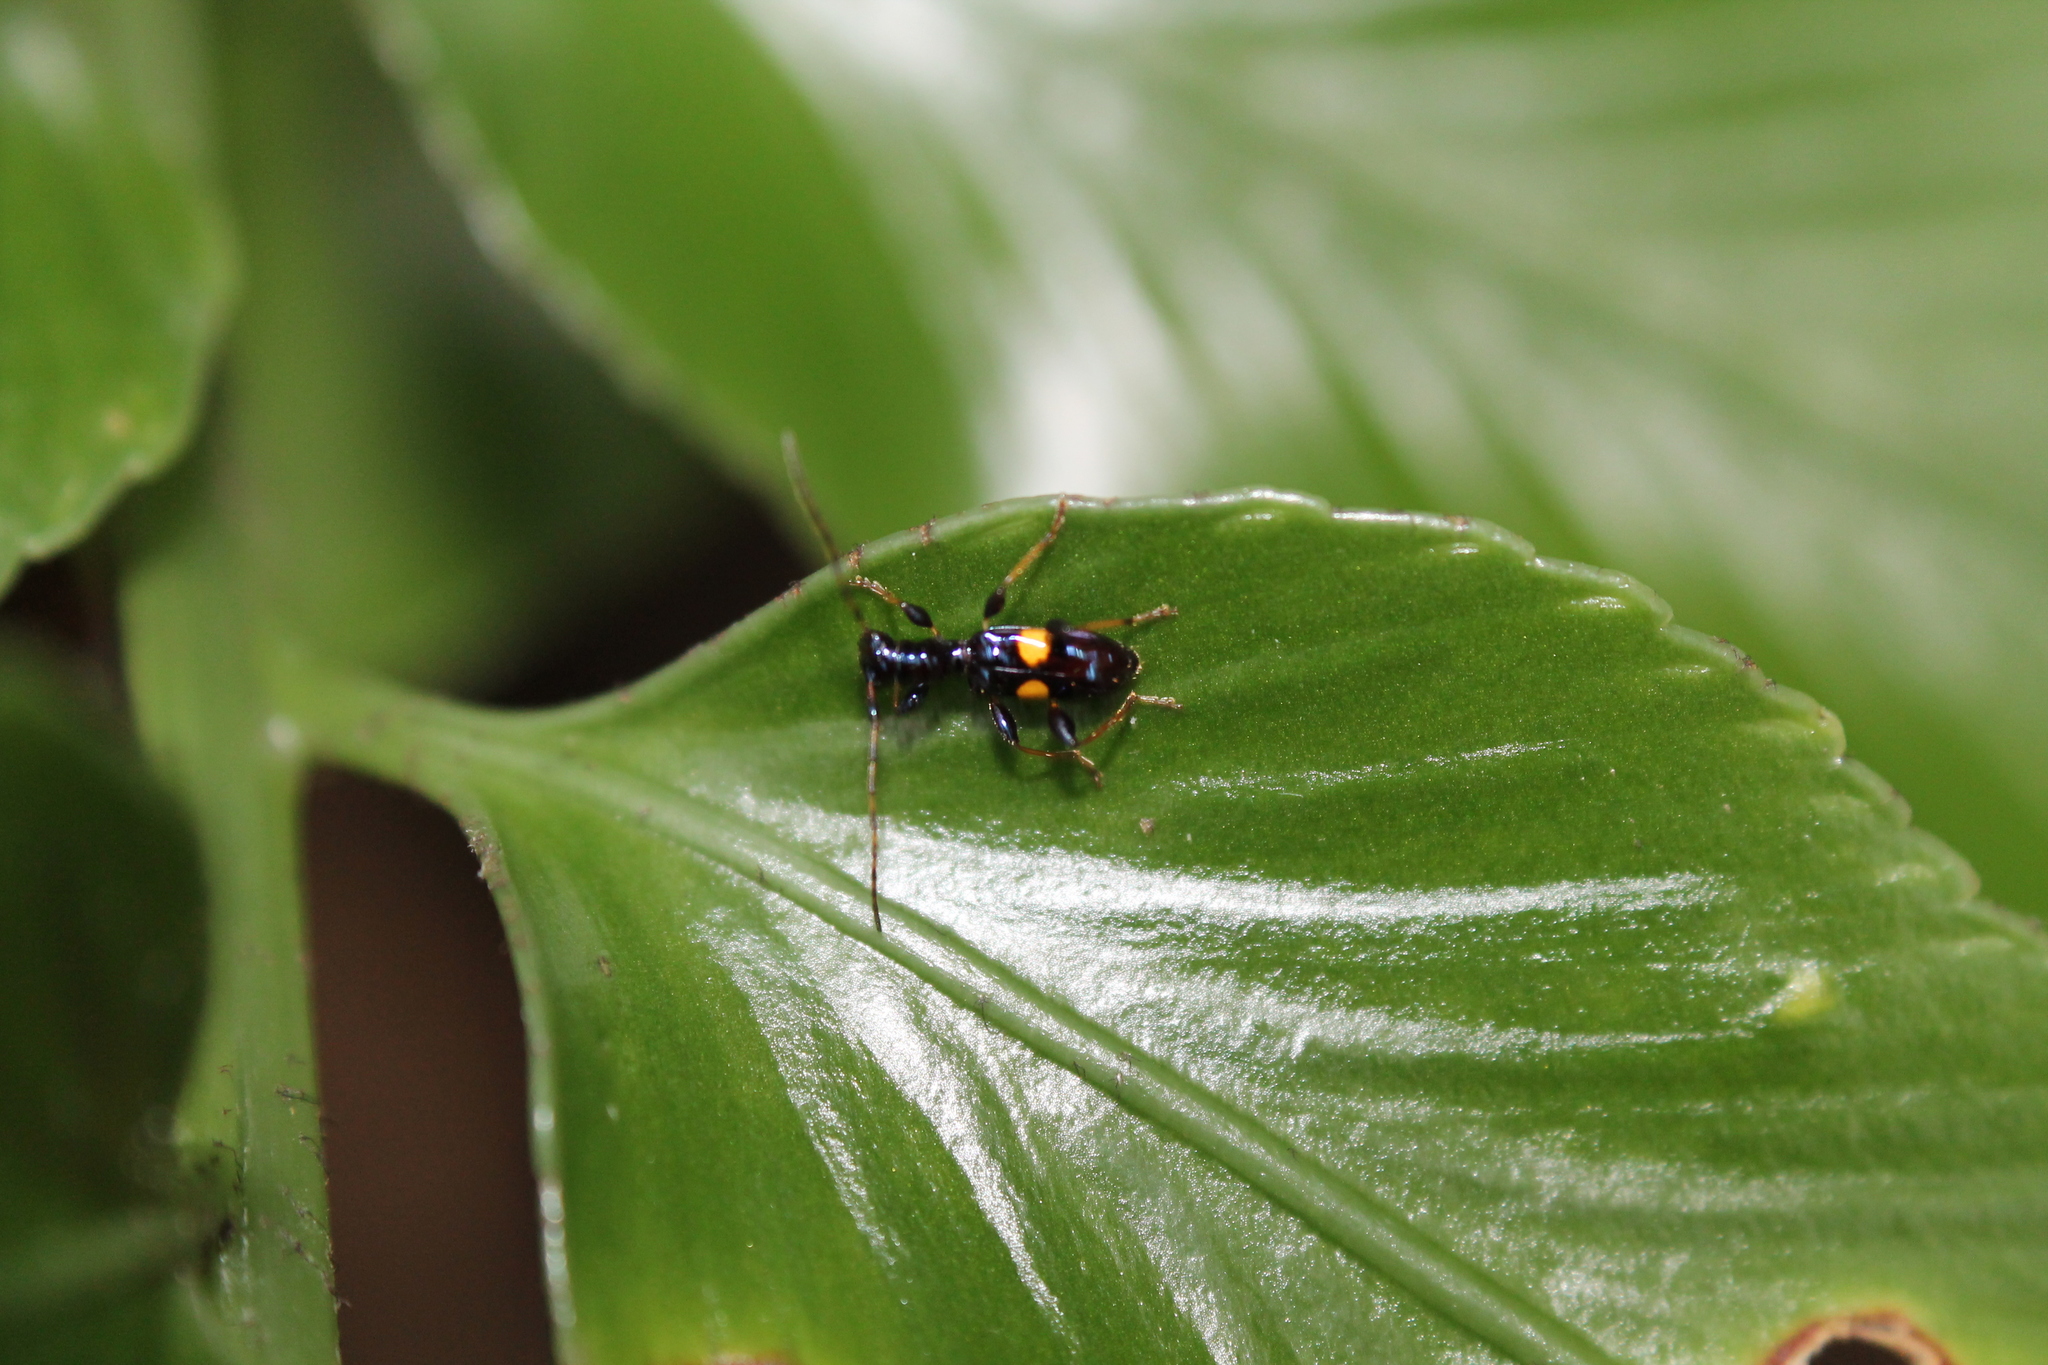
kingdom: Animalia
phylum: Arthropoda
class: Insecta
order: Coleoptera
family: Cerambycidae
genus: Zorion
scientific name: Zorion guttigerum
